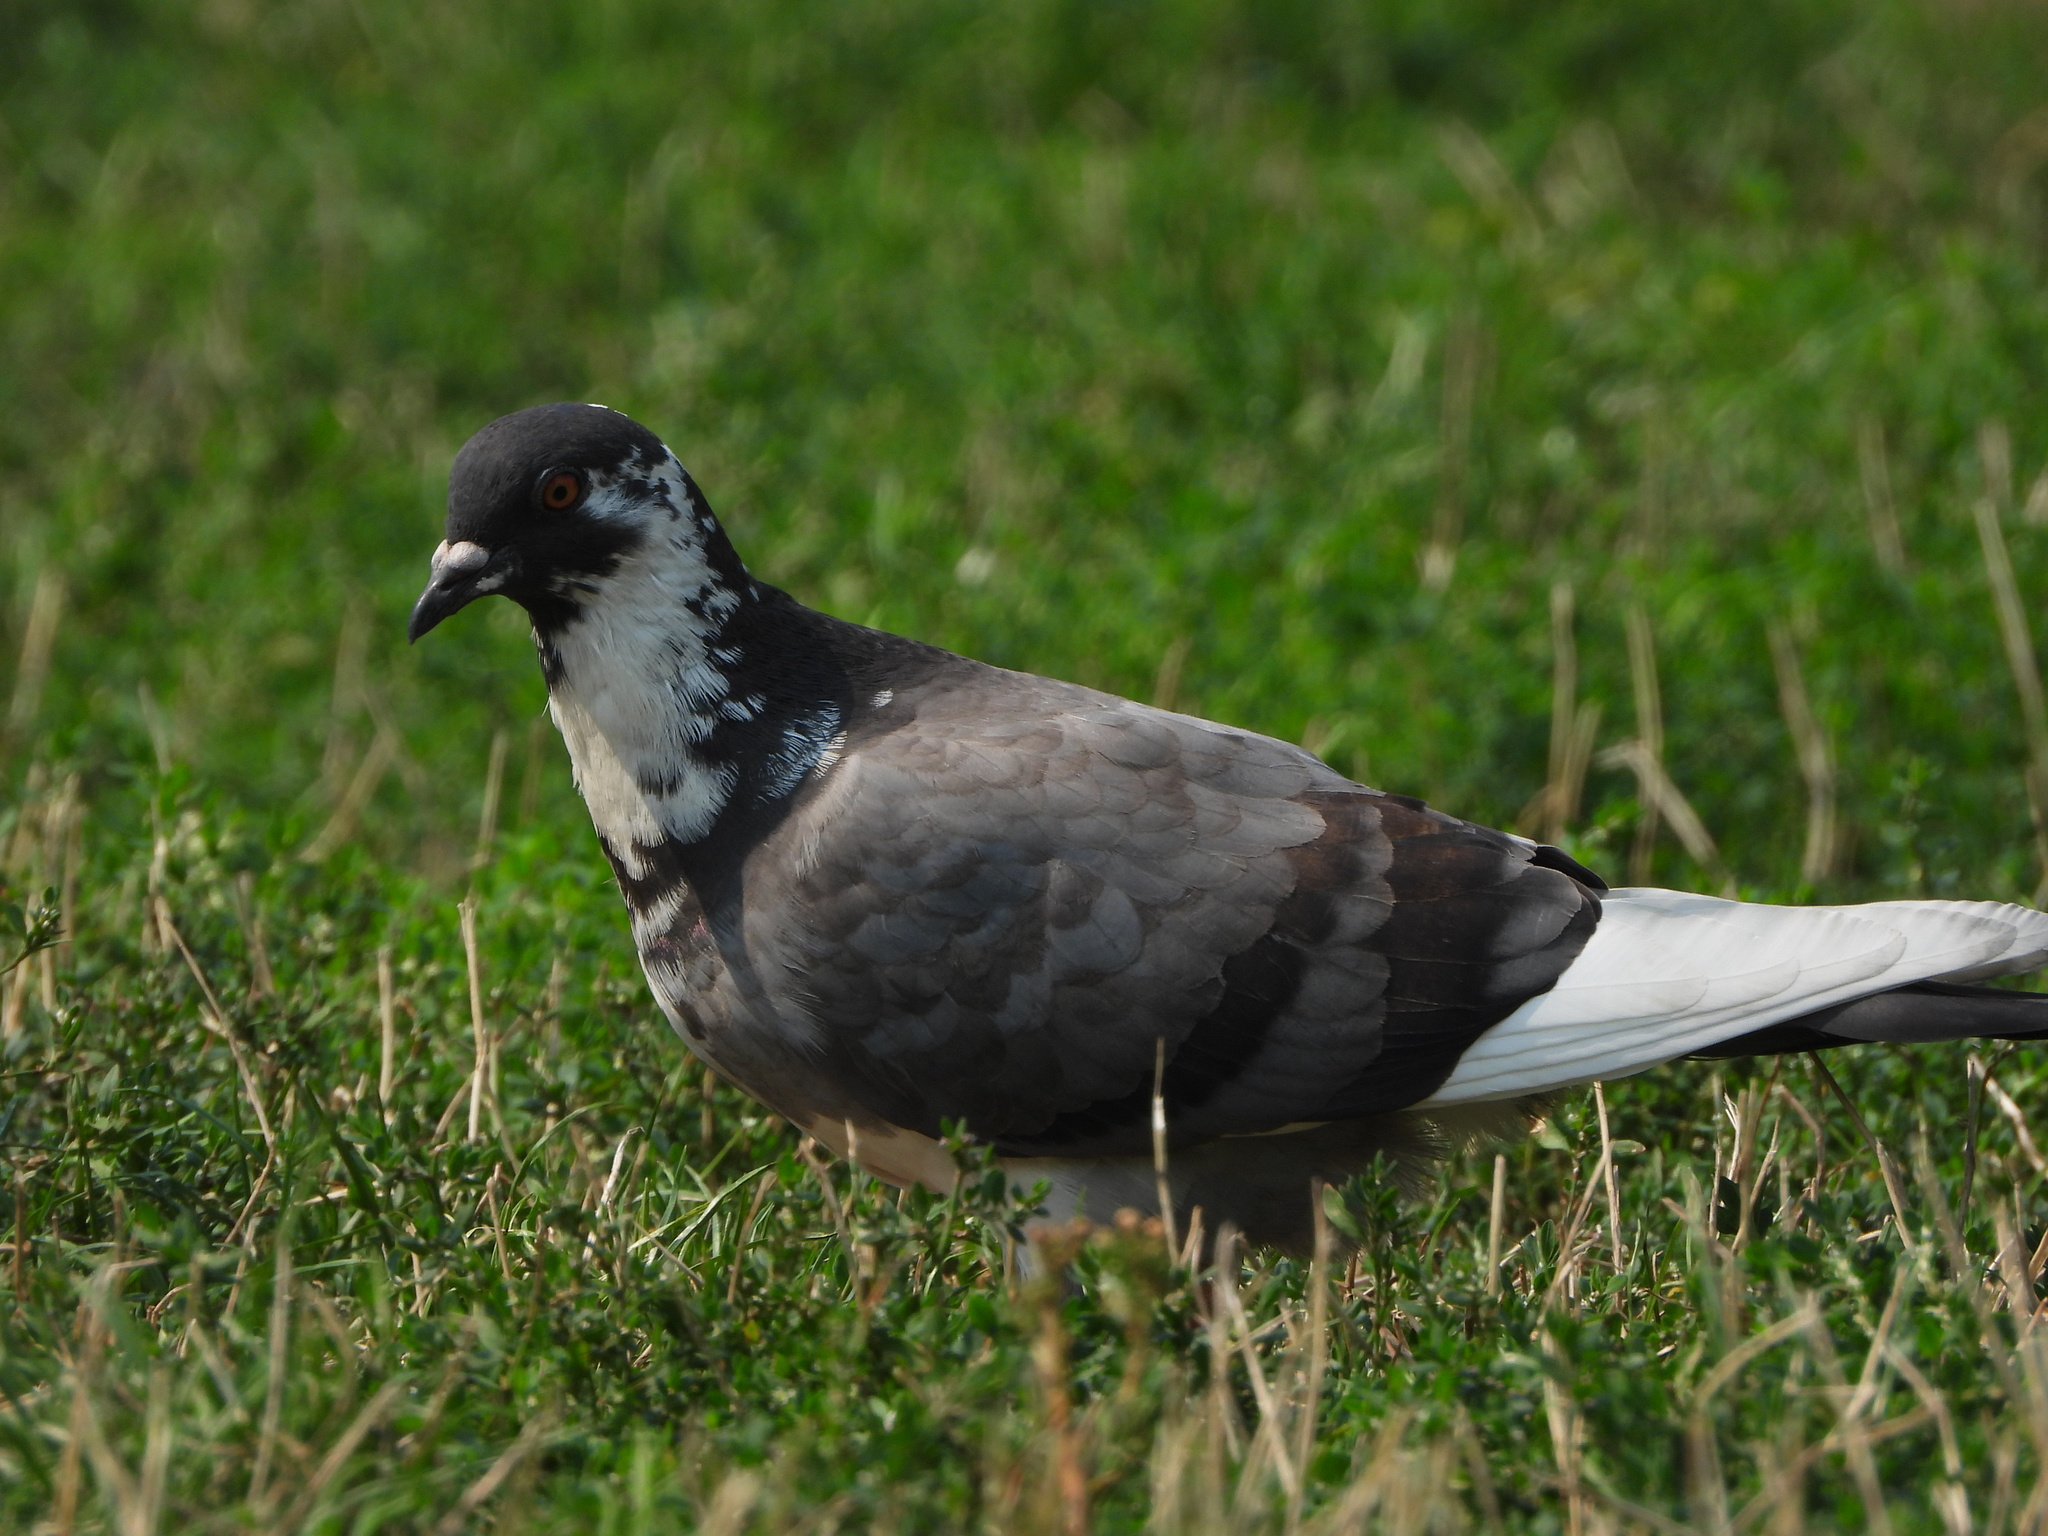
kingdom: Animalia
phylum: Chordata
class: Aves
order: Columbiformes
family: Columbidae
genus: Columba
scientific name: Columba livia
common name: Rock pigeon
